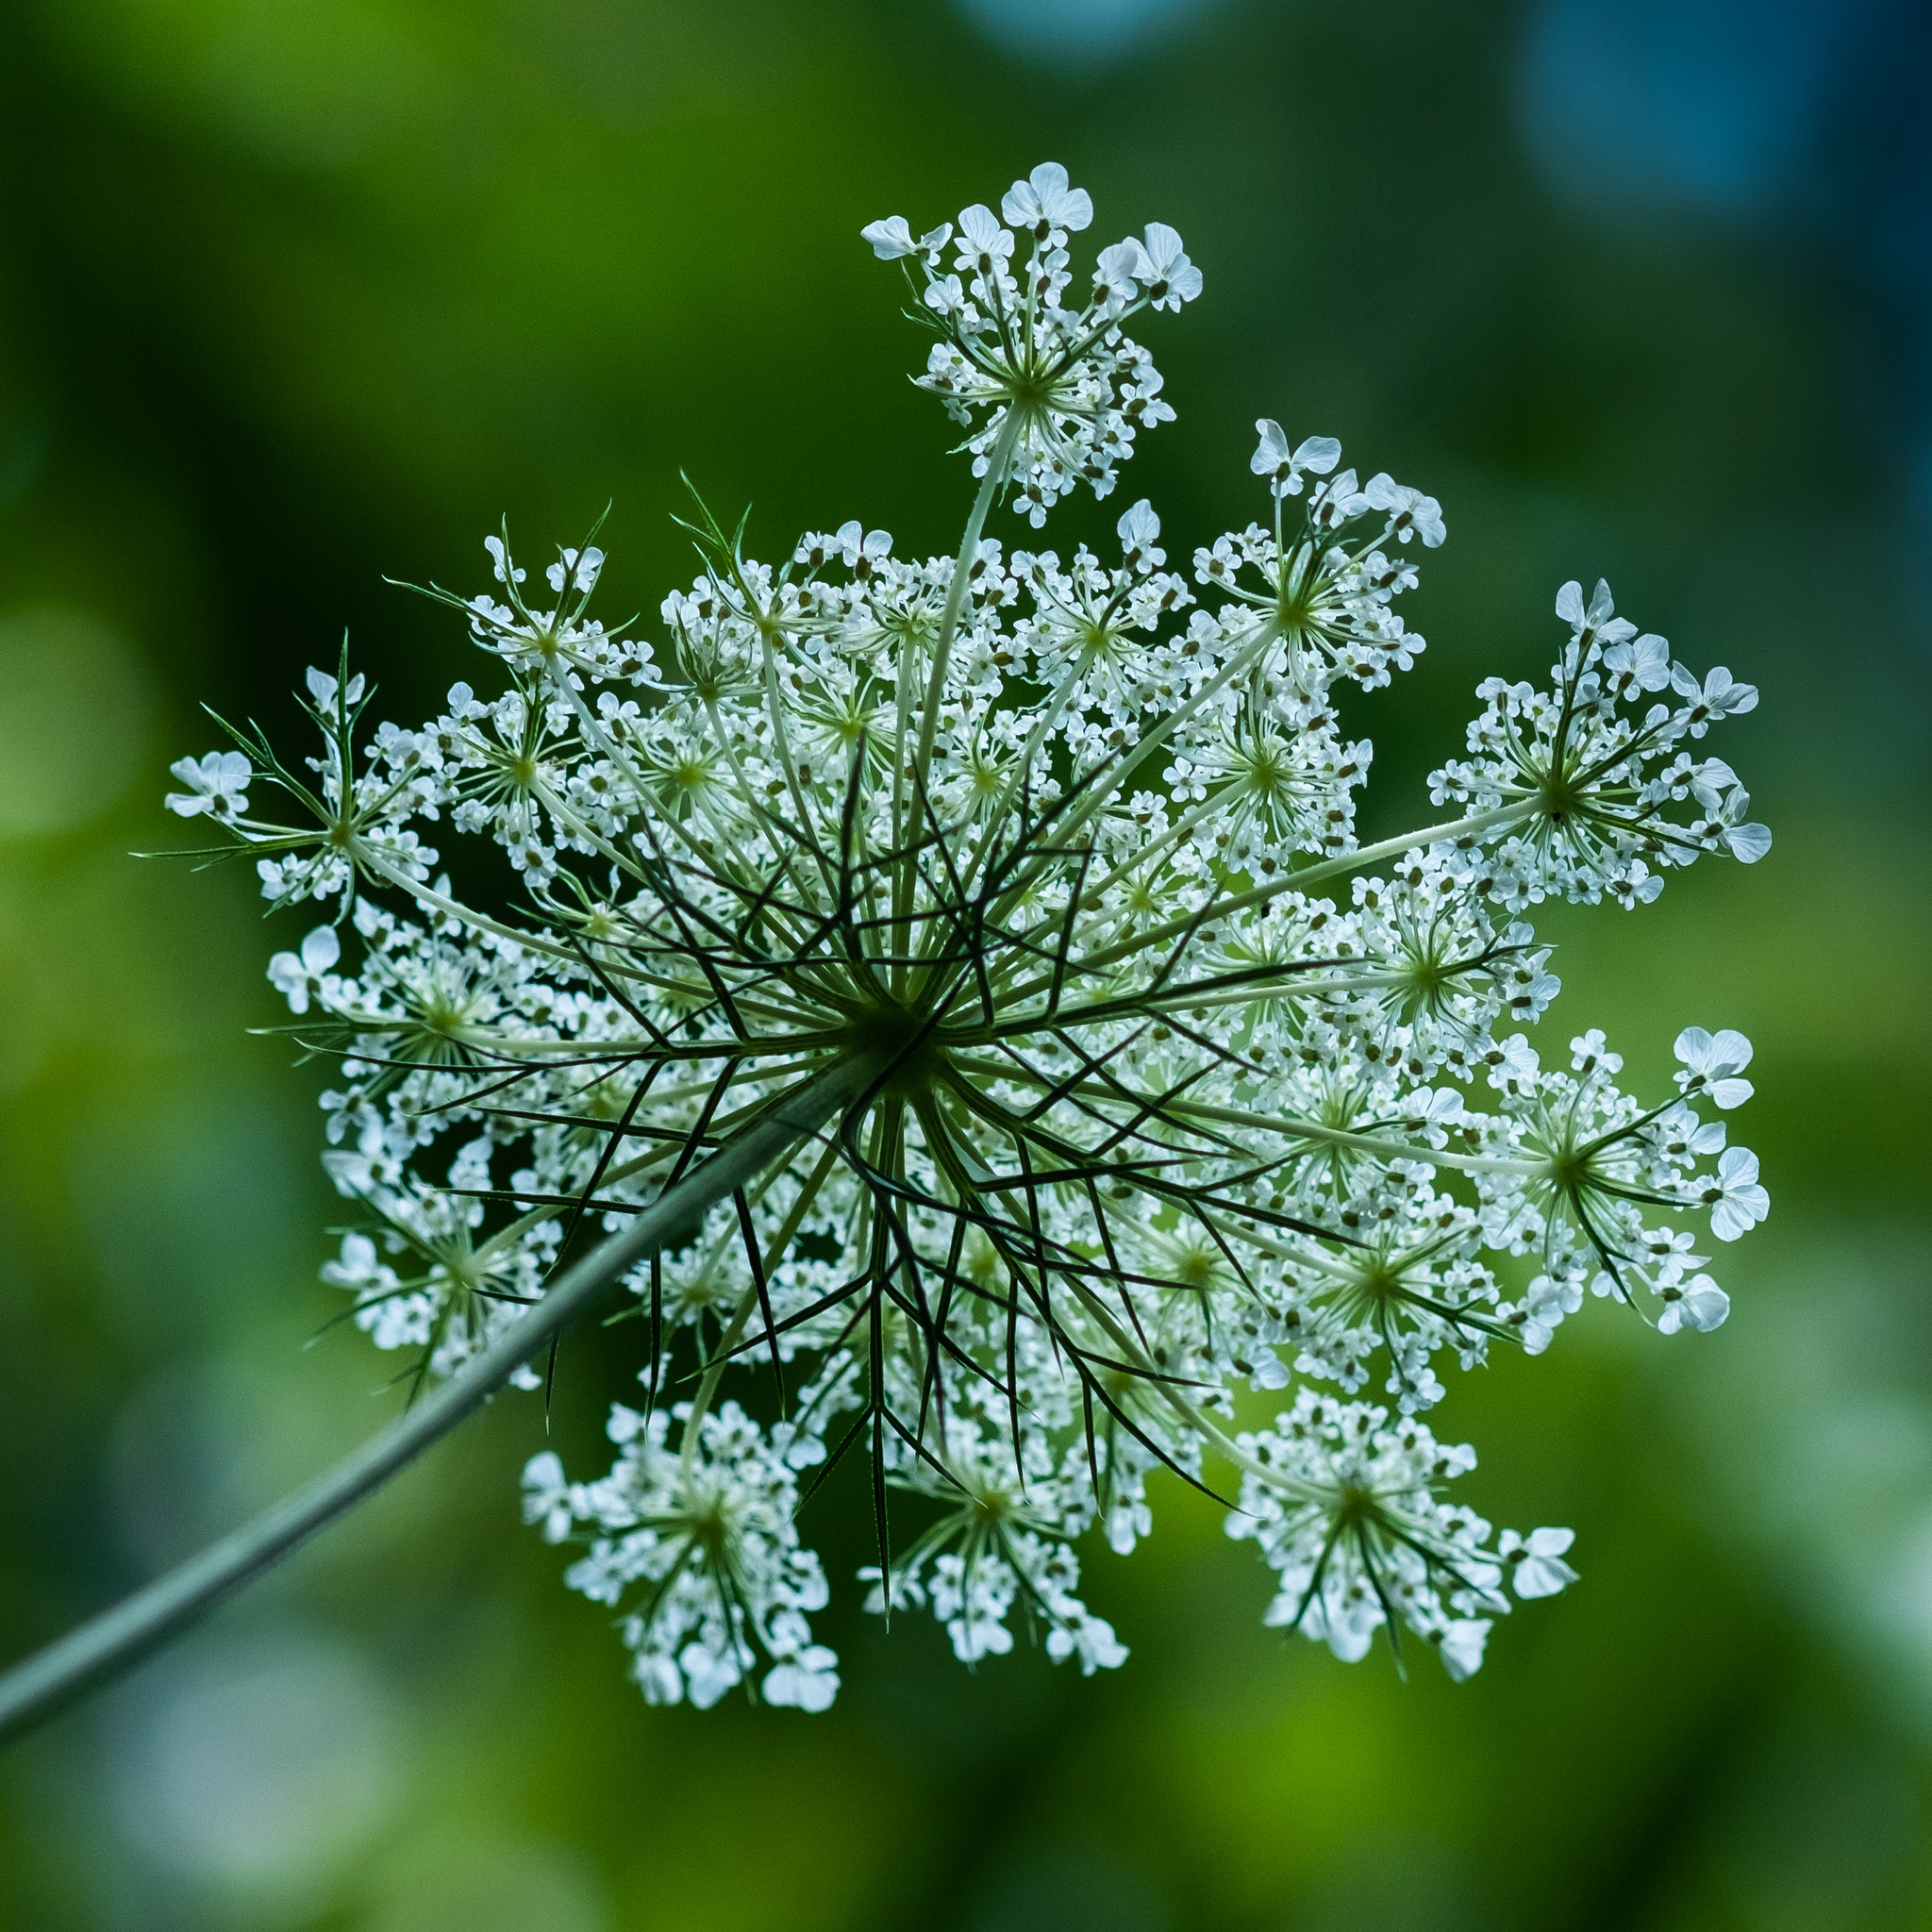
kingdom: Plantae
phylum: Tracheophyta
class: Magnoliopsida
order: Apiales
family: Apiaceae
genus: Daucus
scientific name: Daucus carota
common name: Wild carrot
